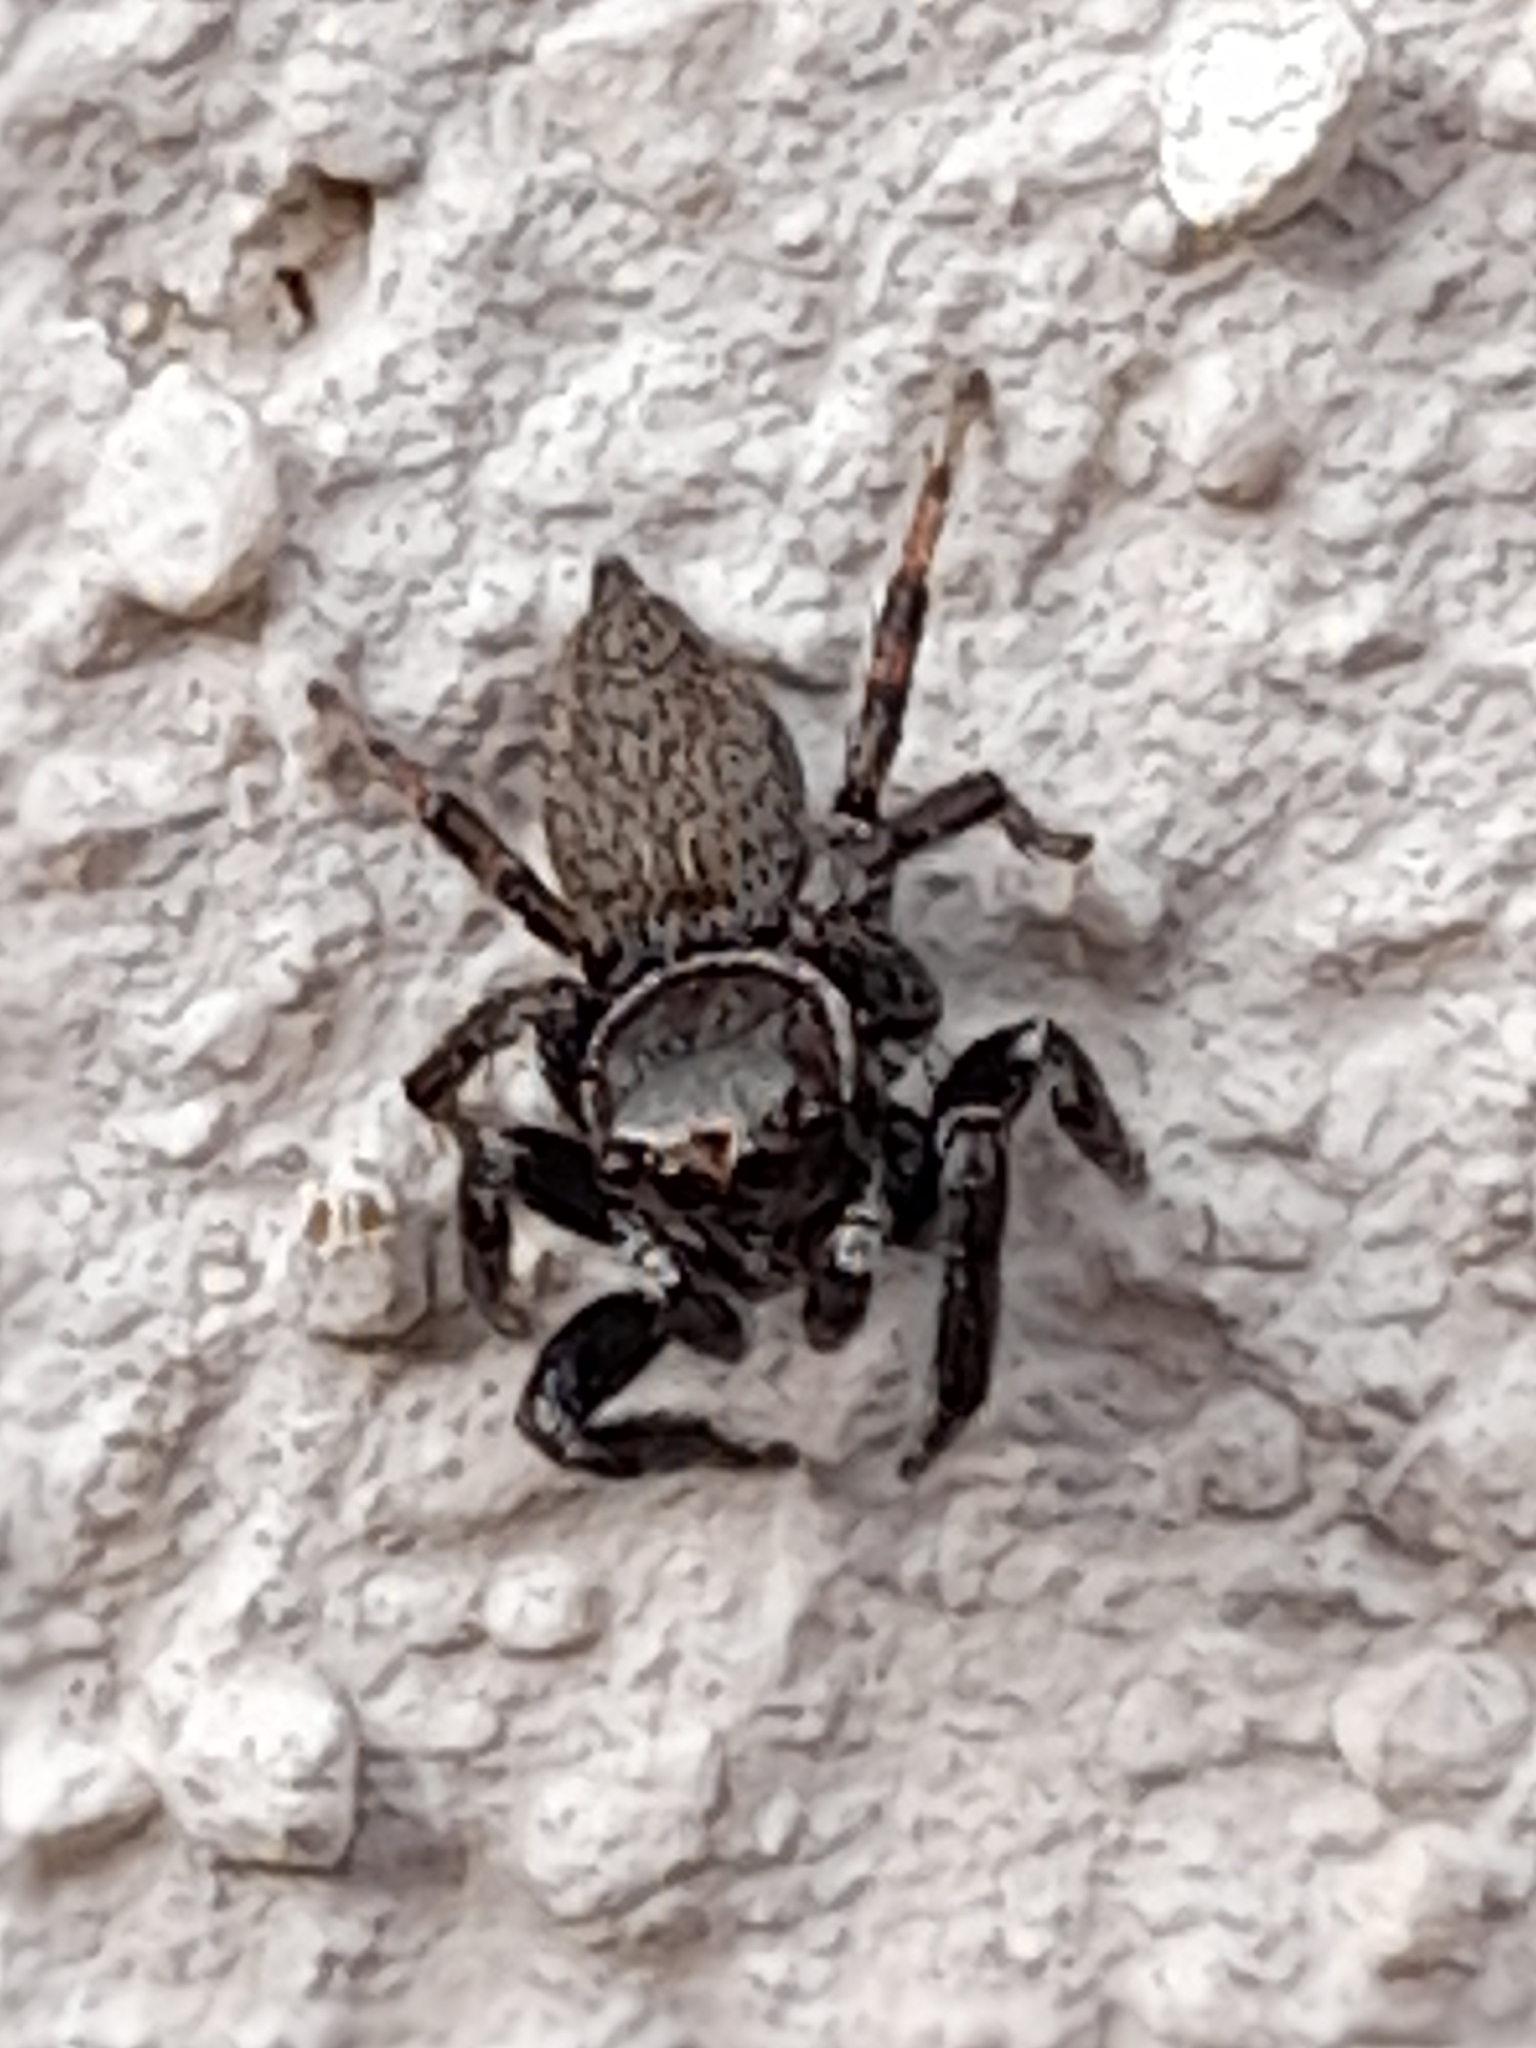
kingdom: Animalia
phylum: Arthropoda
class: Arachnida
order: Araneae
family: Salticidae
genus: Evarcha
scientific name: Evarcha jucunda
